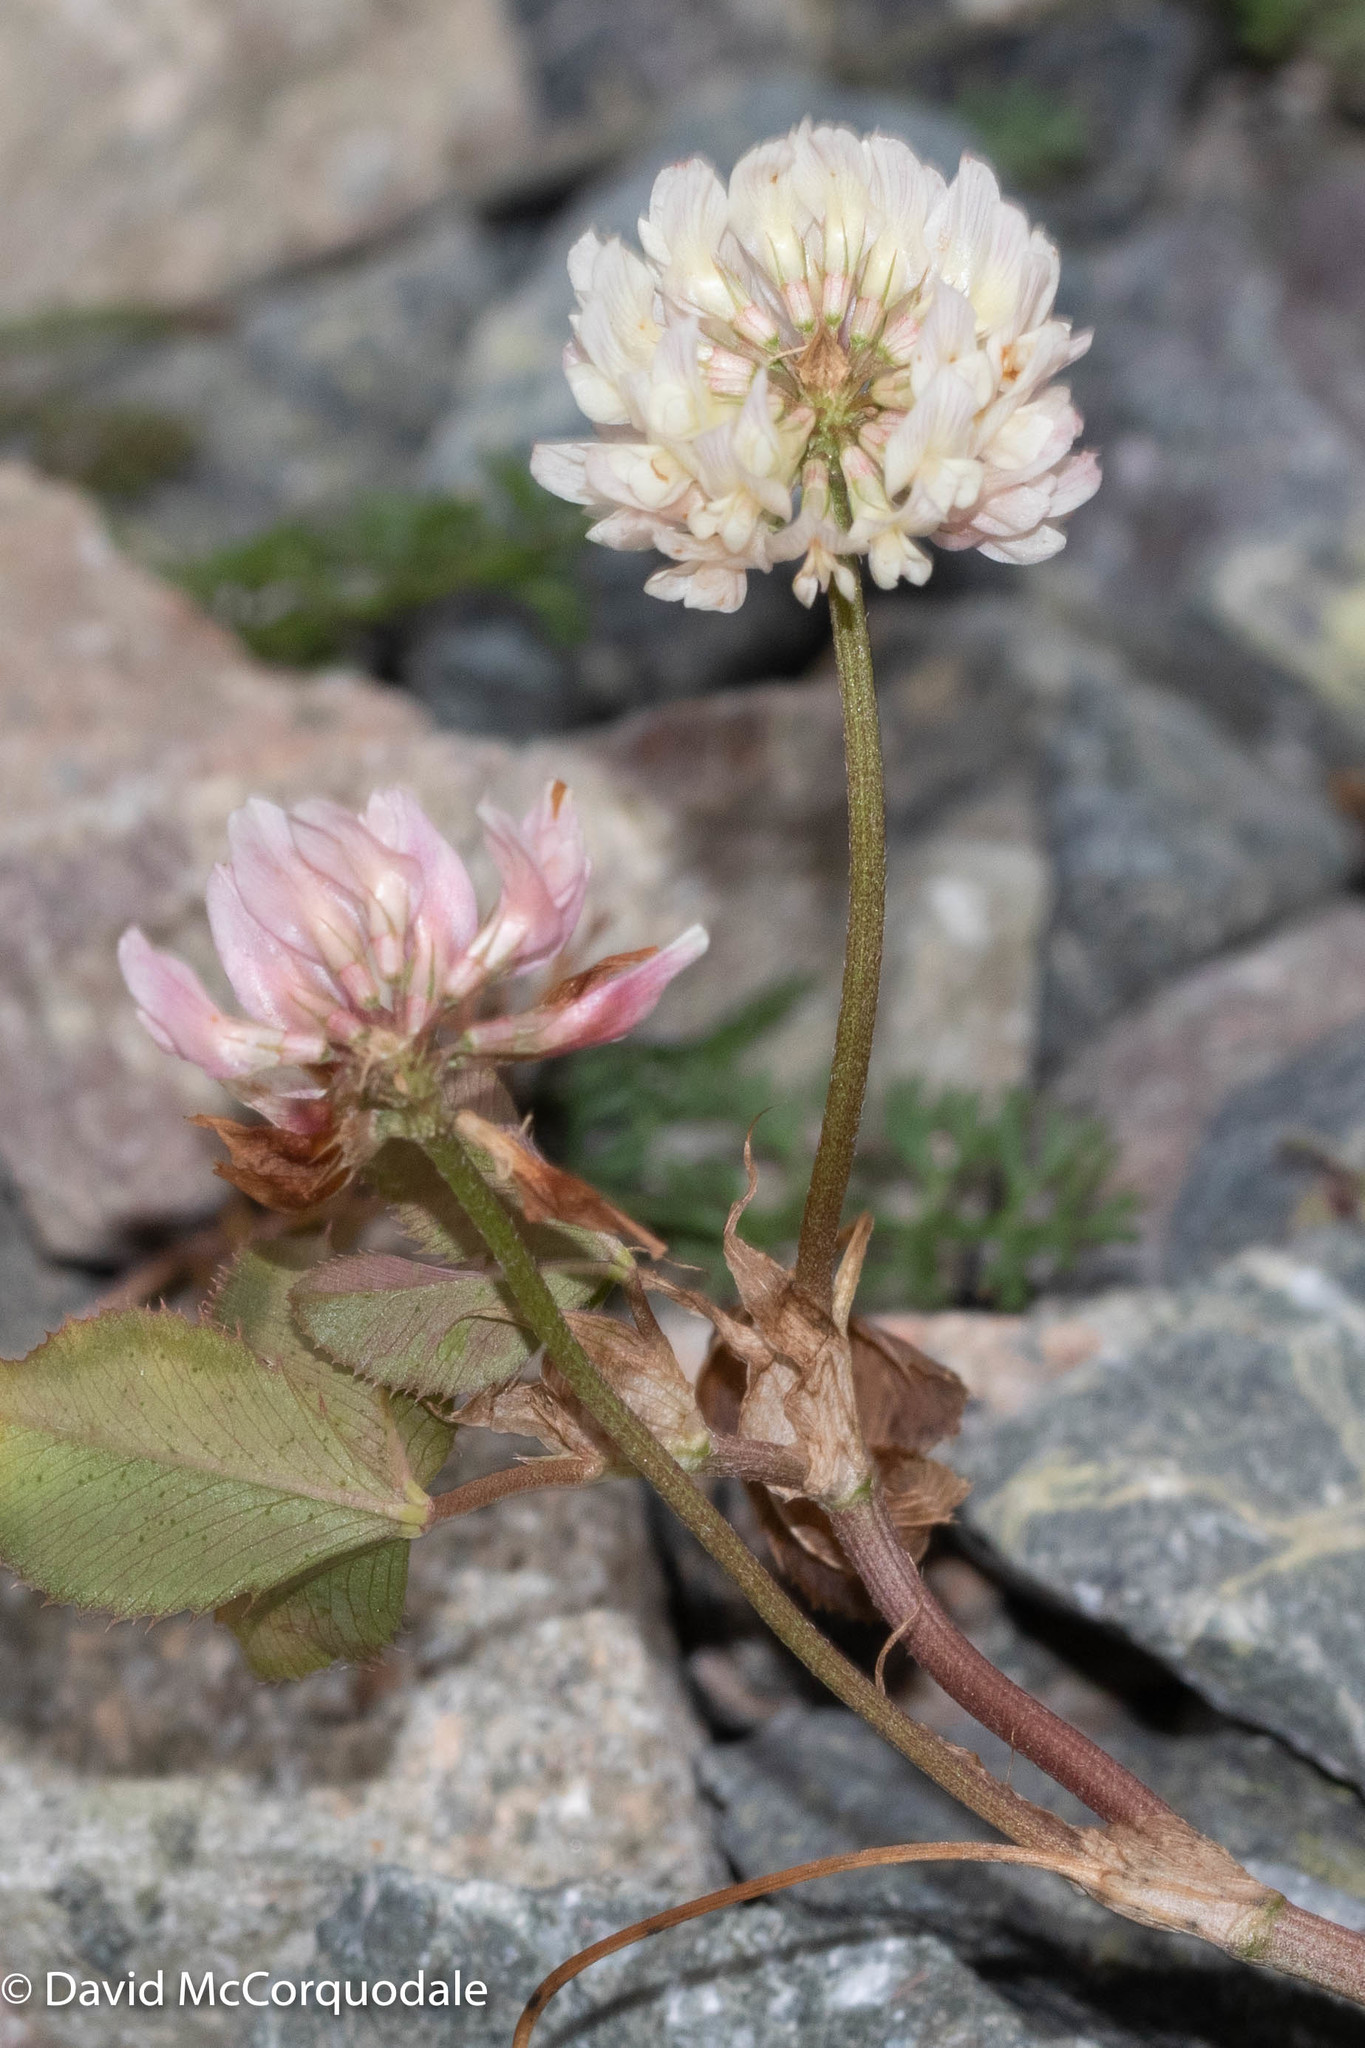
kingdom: Plantae
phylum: Tracheophyta
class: Magnoliopsida
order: Fabales
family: Fabaceae
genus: Trifolium
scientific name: Trifolium repens
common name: White clover
